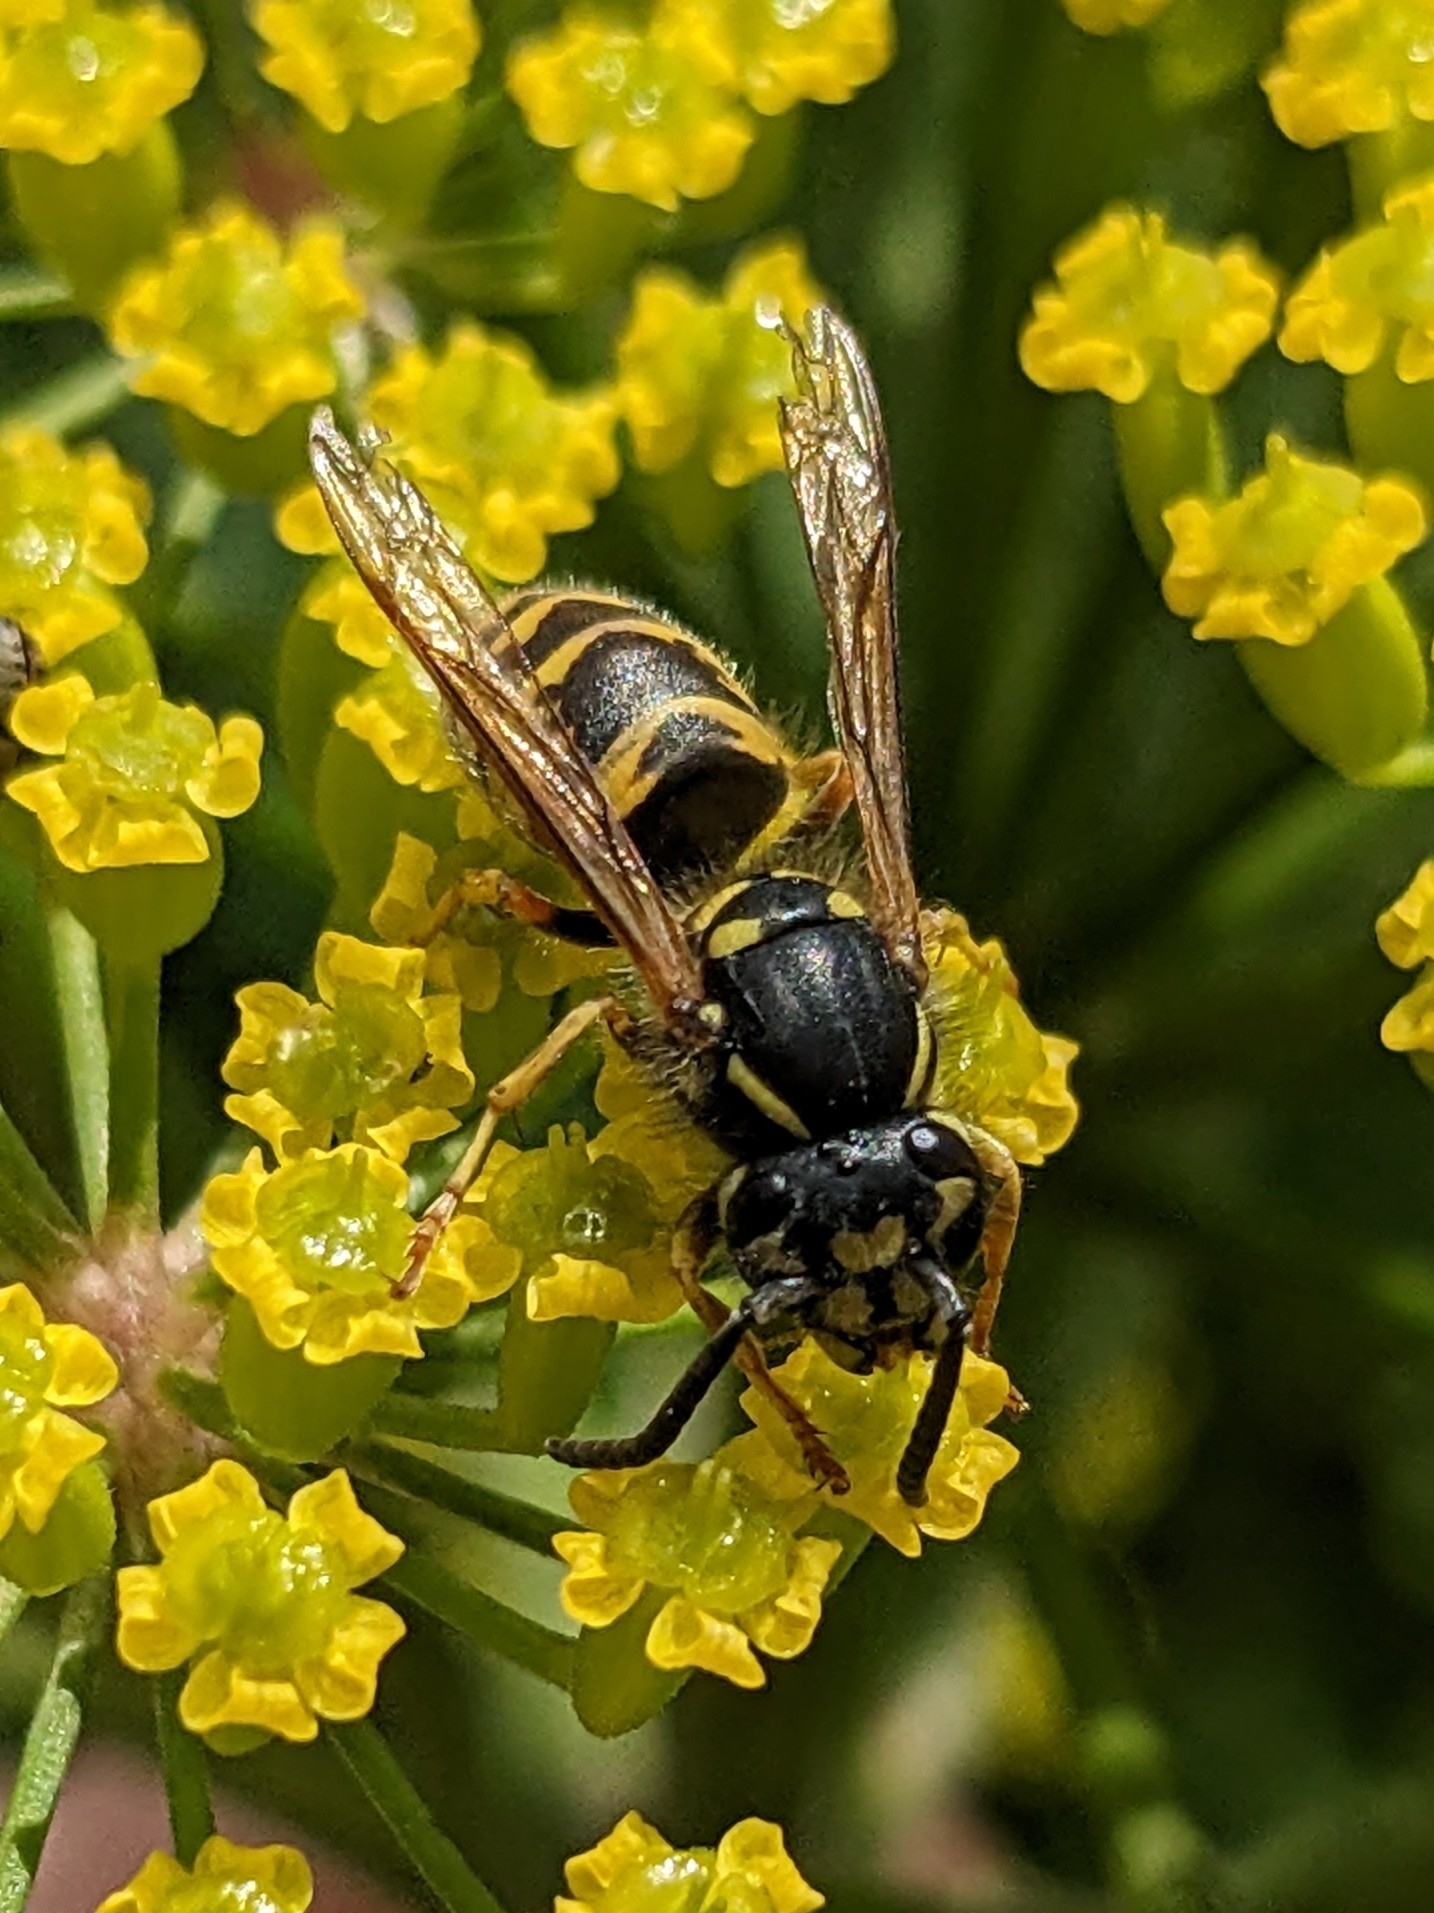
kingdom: Animalia
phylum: Arthropoda
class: Insecta
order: Hymenoptera
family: Vespidae
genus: Vespula
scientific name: Vespula vulgaris
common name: Common wasp
